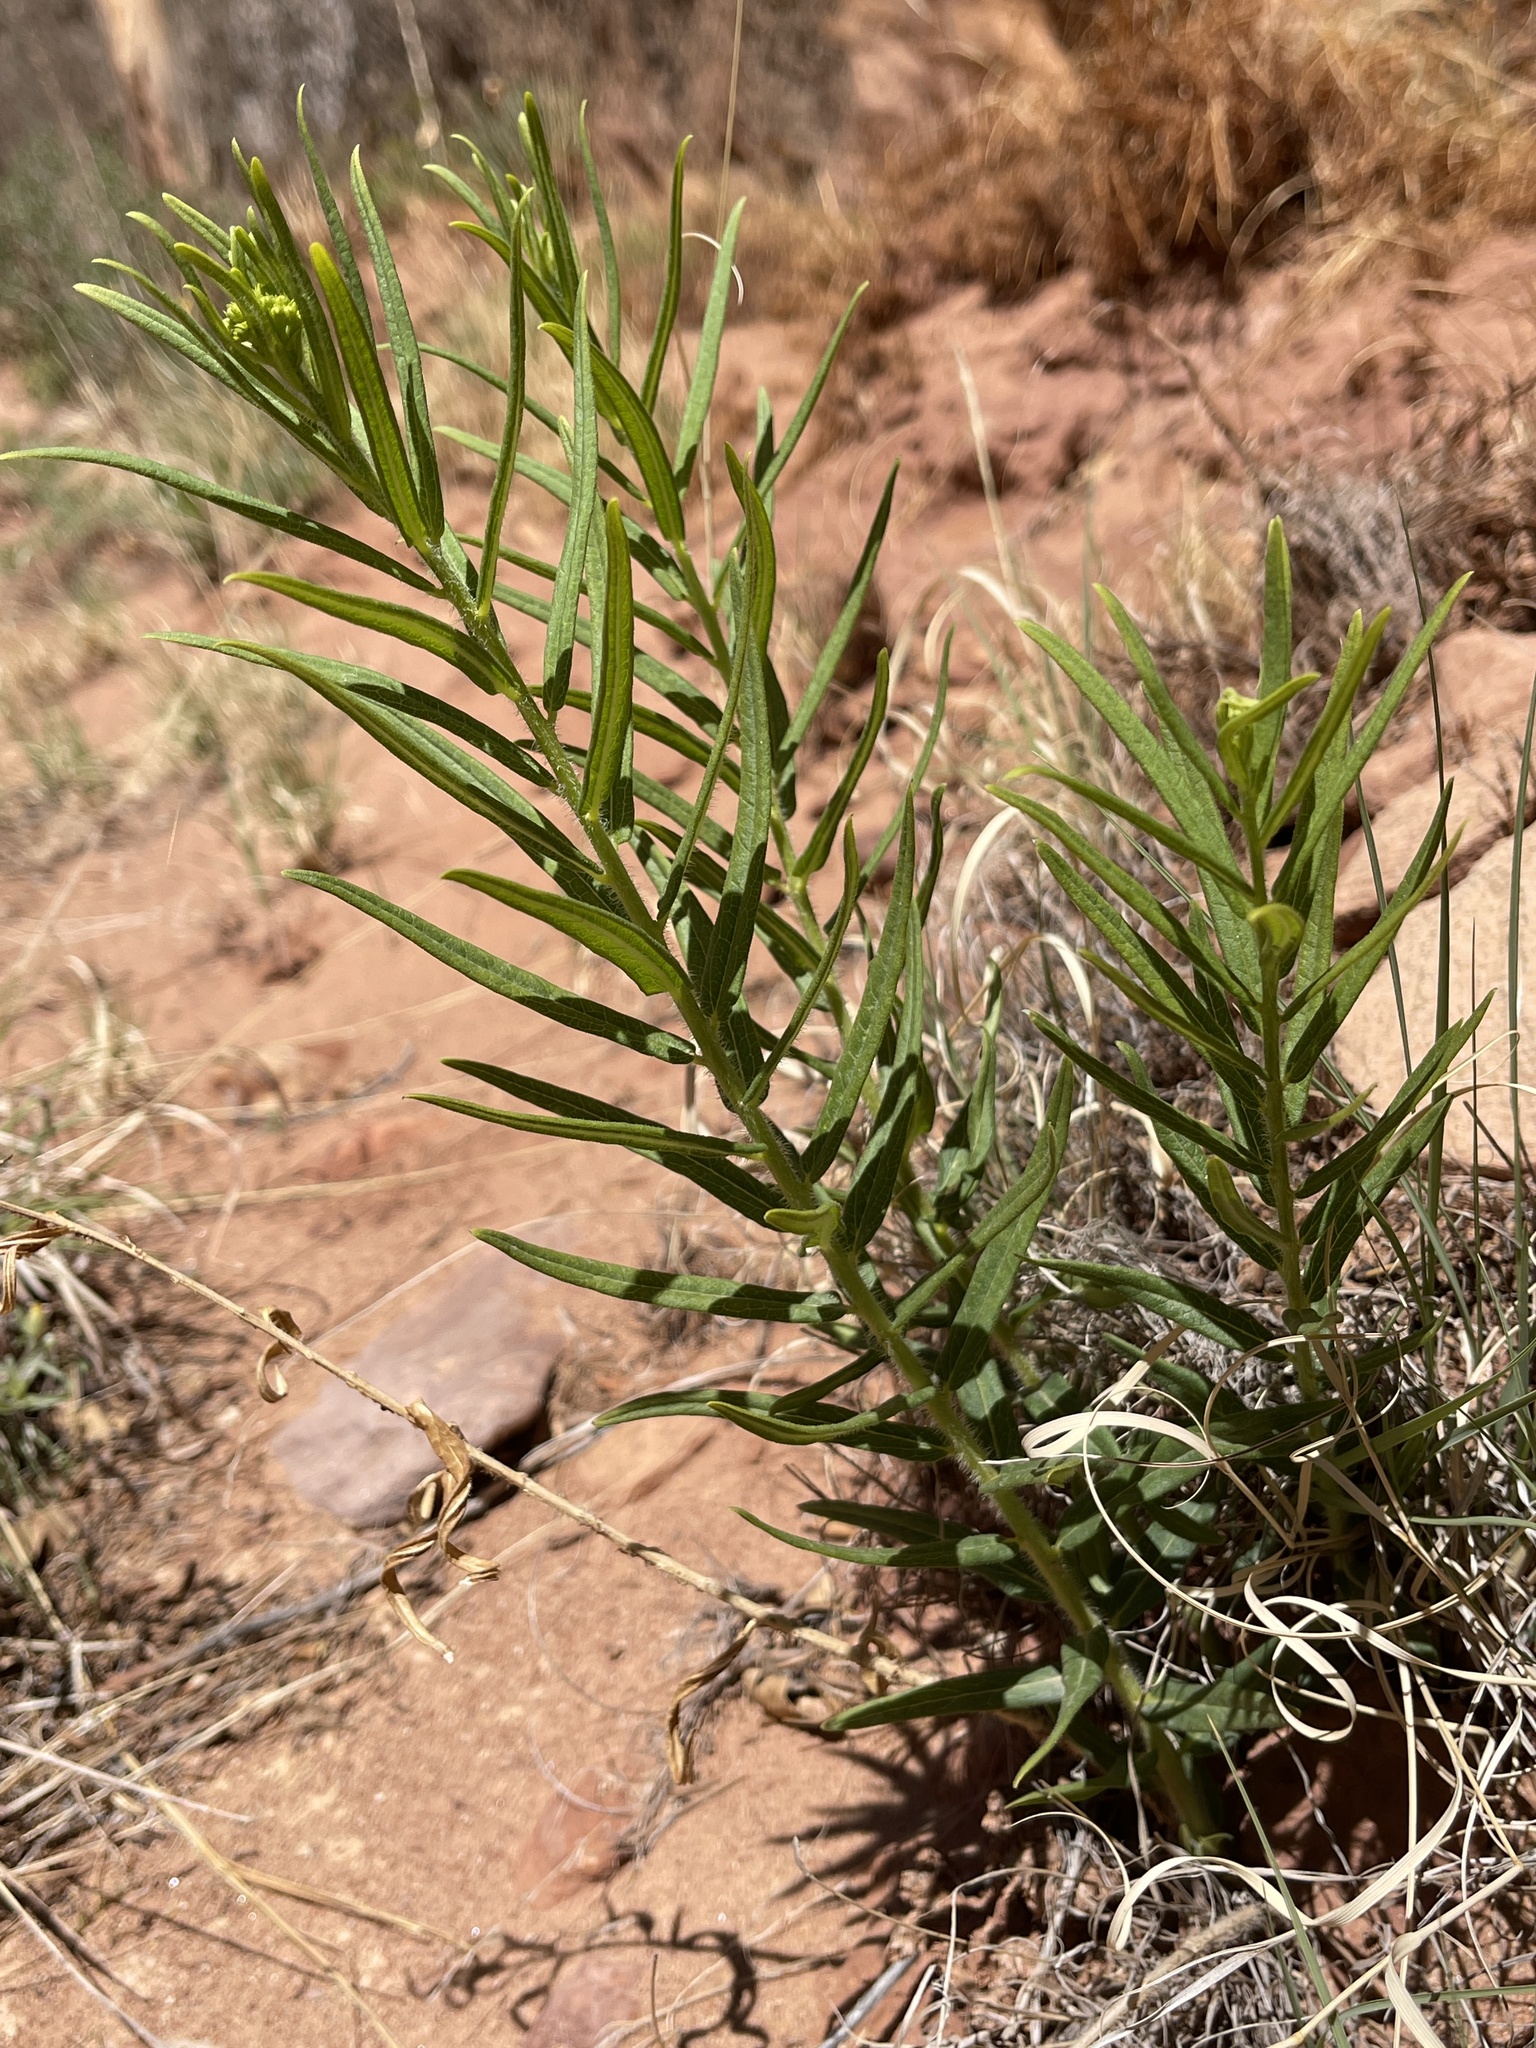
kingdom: Plantae
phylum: Tracheophyta
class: Magnoliopsida
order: Gentianales
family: Apocynaceae
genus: Asclepias
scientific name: Asclepias tuberosa
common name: Butterfly milkweed
